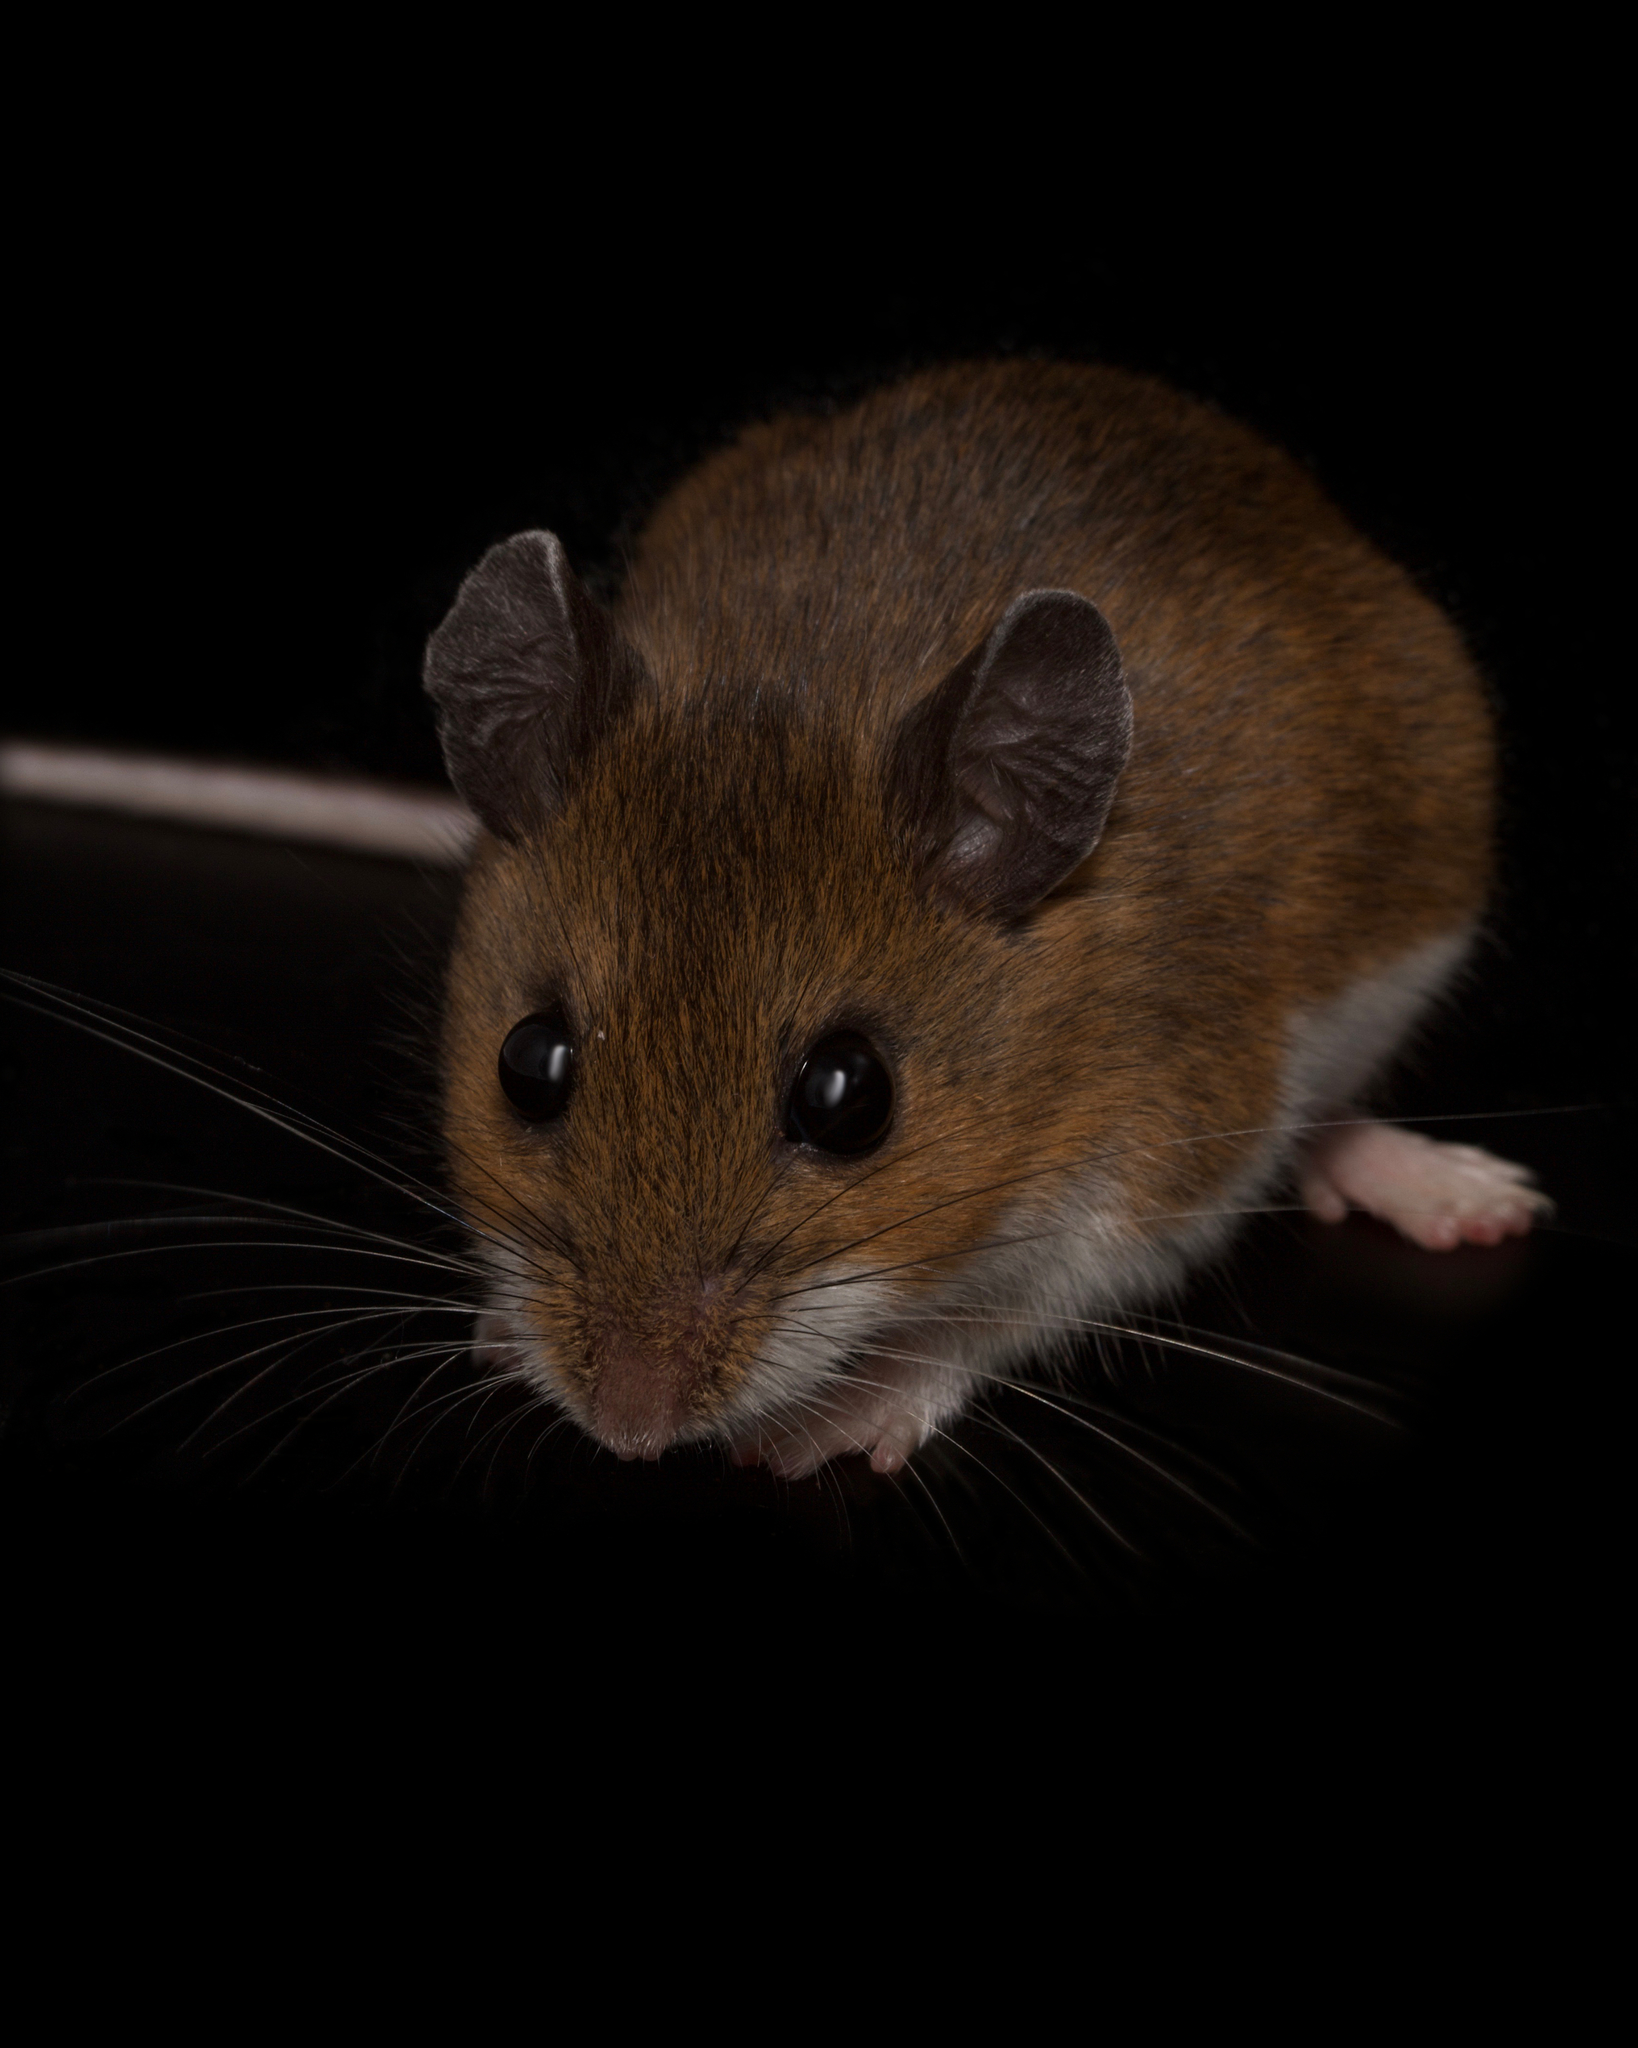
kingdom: Animalia
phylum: Chordata
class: Mammalia
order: Rodentia
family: Cricetidae
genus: Peromyscus
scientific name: Peromyscus leucopus
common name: White-footed deermouse
